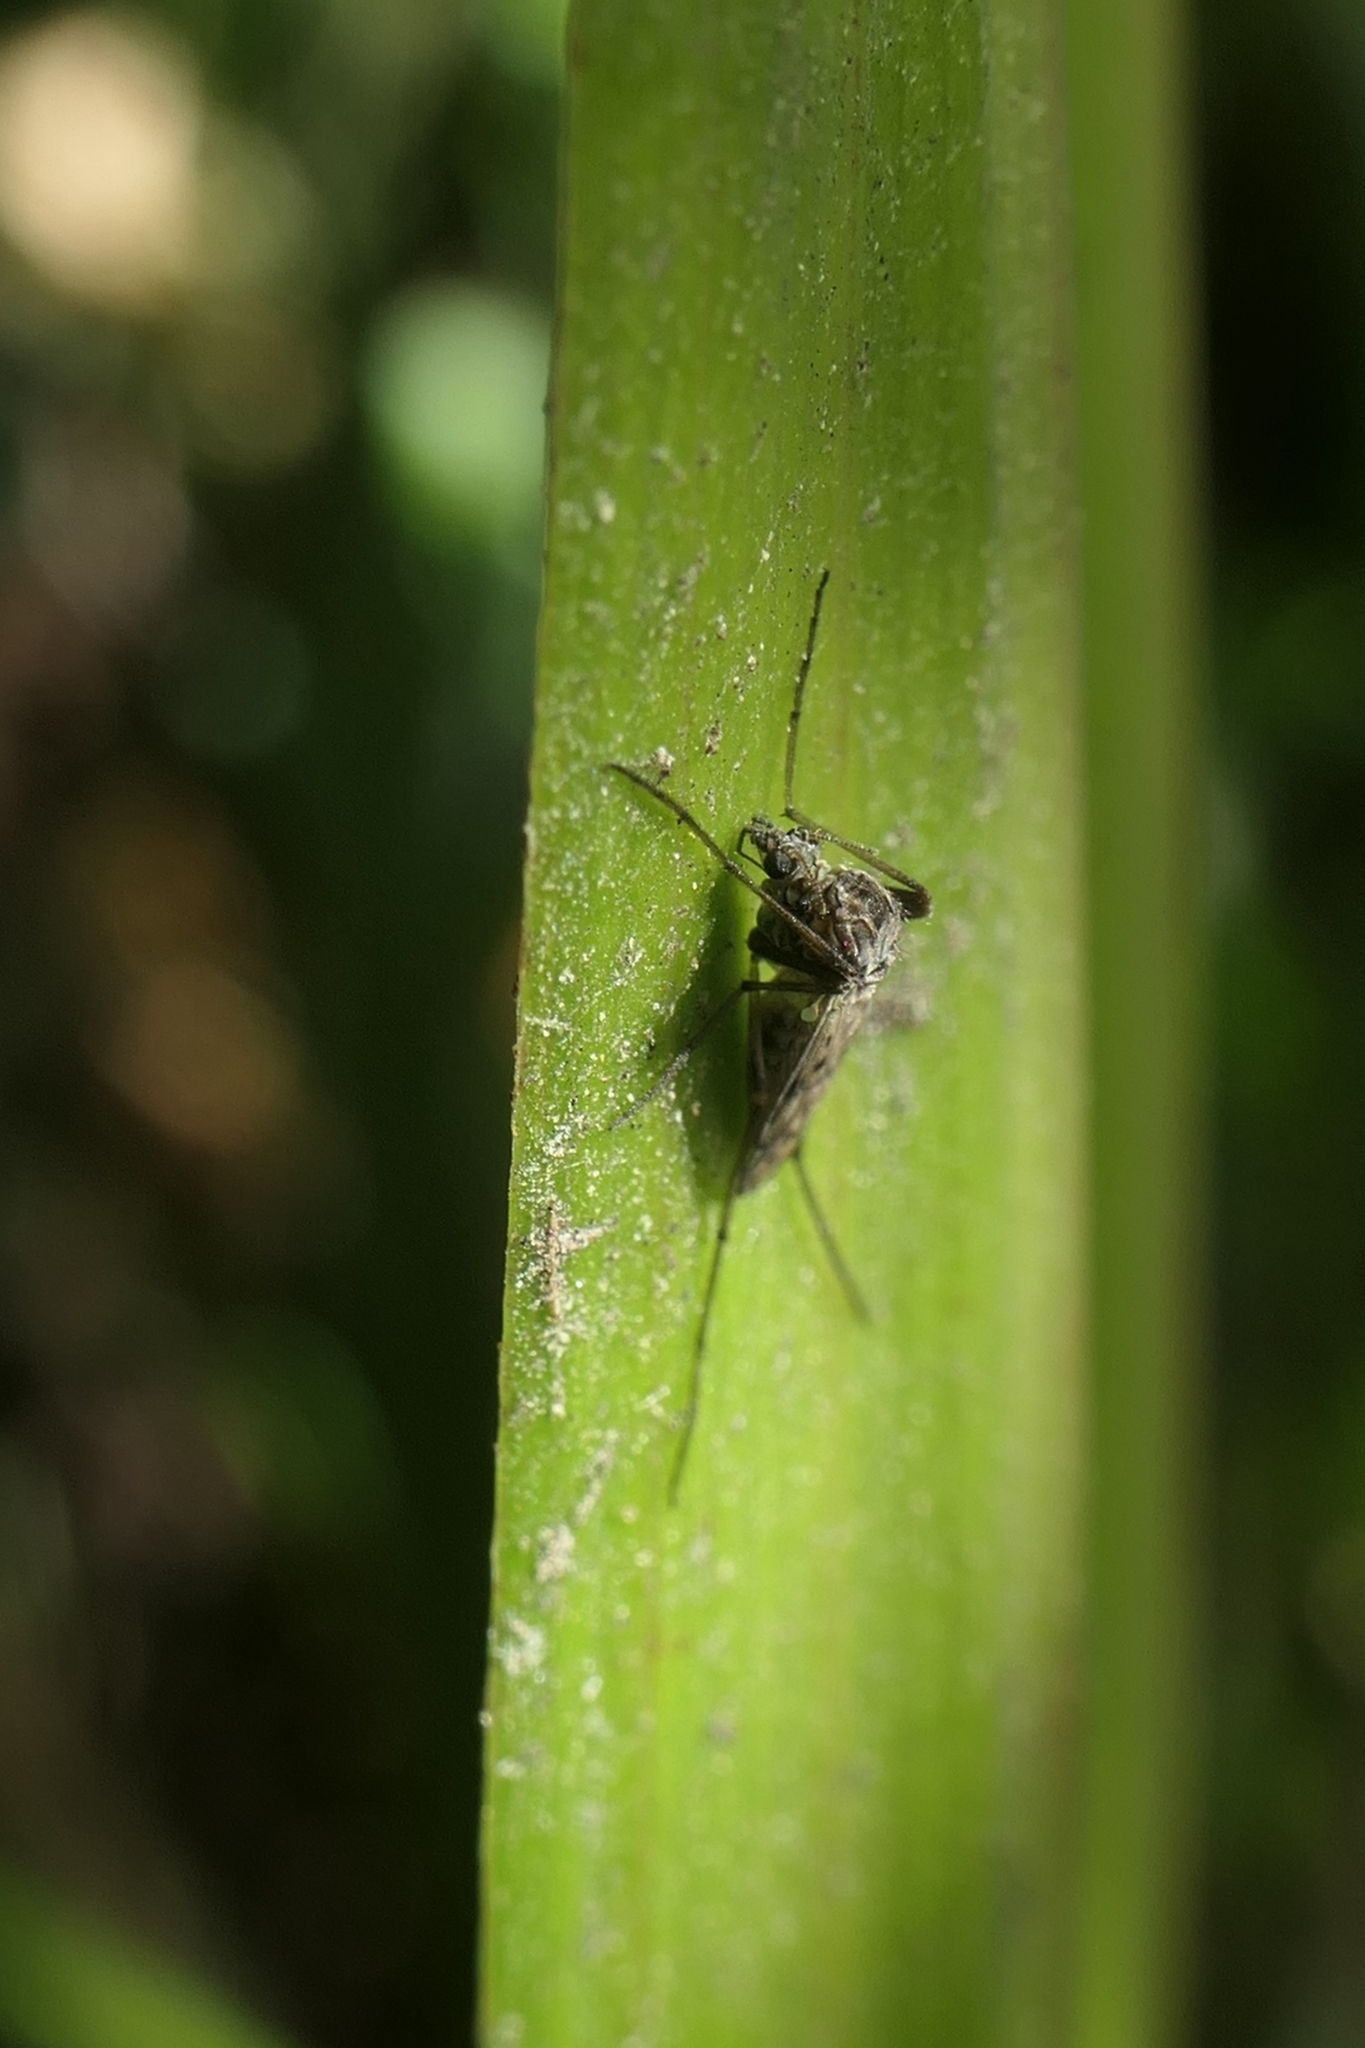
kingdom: Animalia
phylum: Arthropoda
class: Insecta
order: Diptera
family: Chironomidae
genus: Gressittius
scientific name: Gressittius antarcticus
